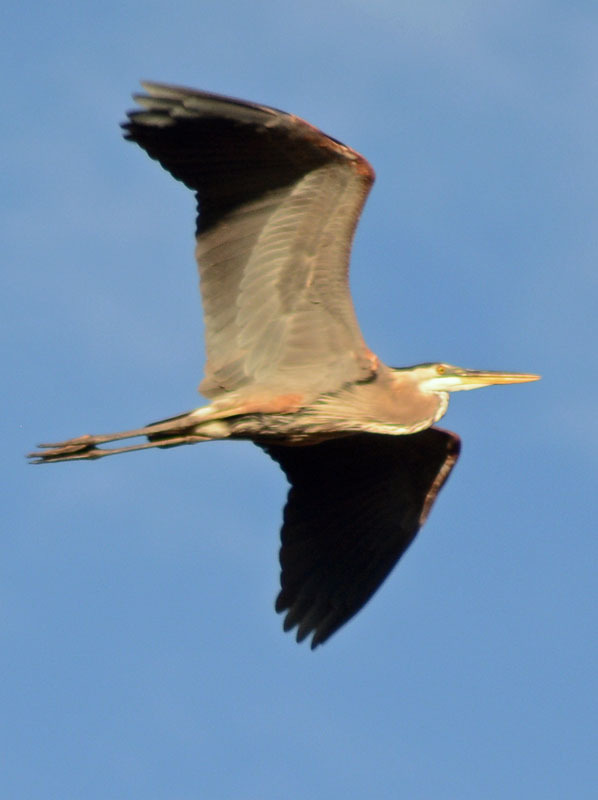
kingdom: Animalia
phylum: Chordata
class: Aves
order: Pelecaniformes
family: Ardeidae
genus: Ardea
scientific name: Ardea herodias
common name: Great blue heron
